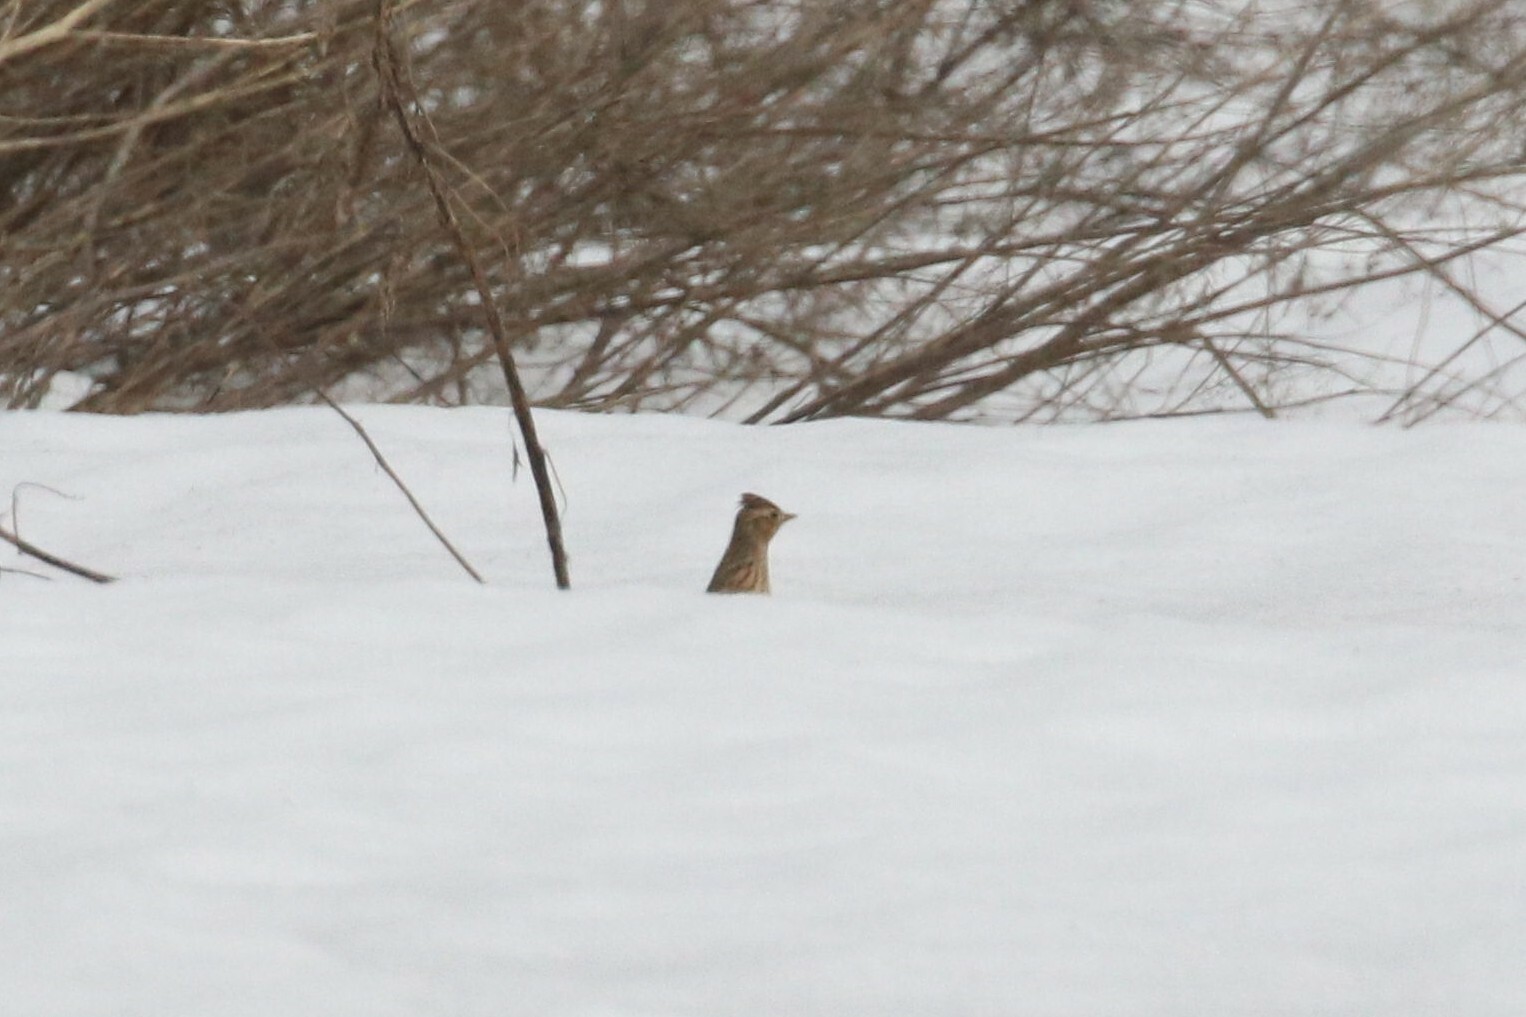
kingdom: Animalia
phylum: Chordata
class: Aves
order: Passeriformes
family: Alaudidae
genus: Alauda
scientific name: Alauda arvensis
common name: Eurasian skylark
